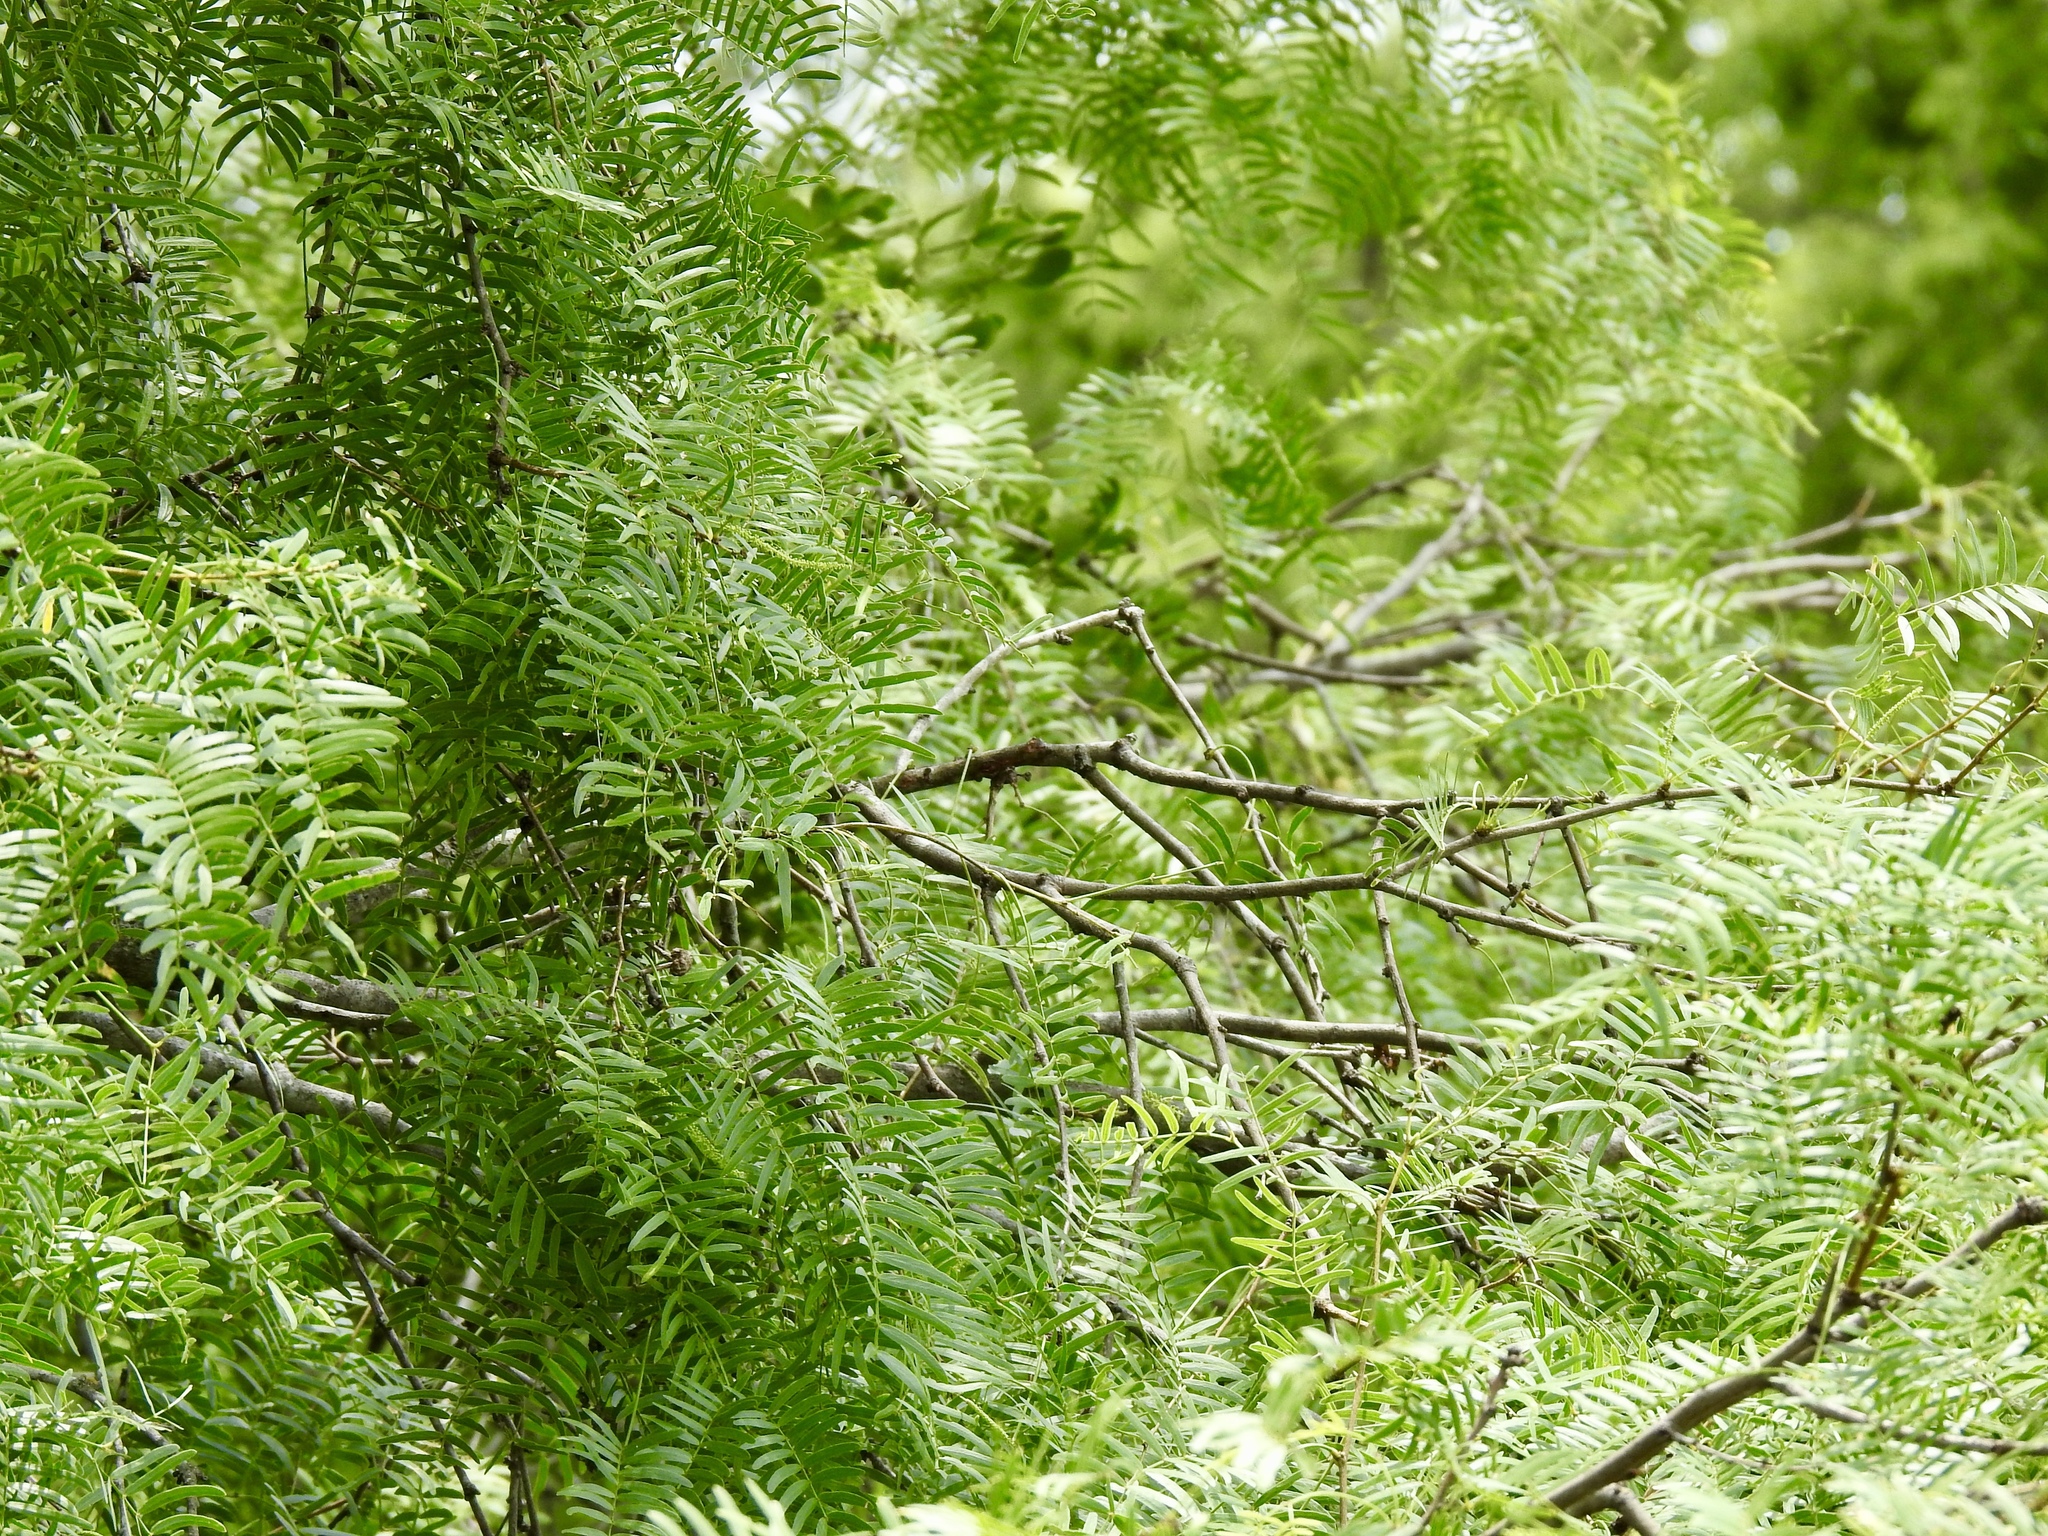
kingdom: Plantae
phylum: Tracheophyta
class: Magnoliopsida
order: Fabales
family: Fabaceae
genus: Prosopis
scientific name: Prosopis glandulosa
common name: Honey mesquite
